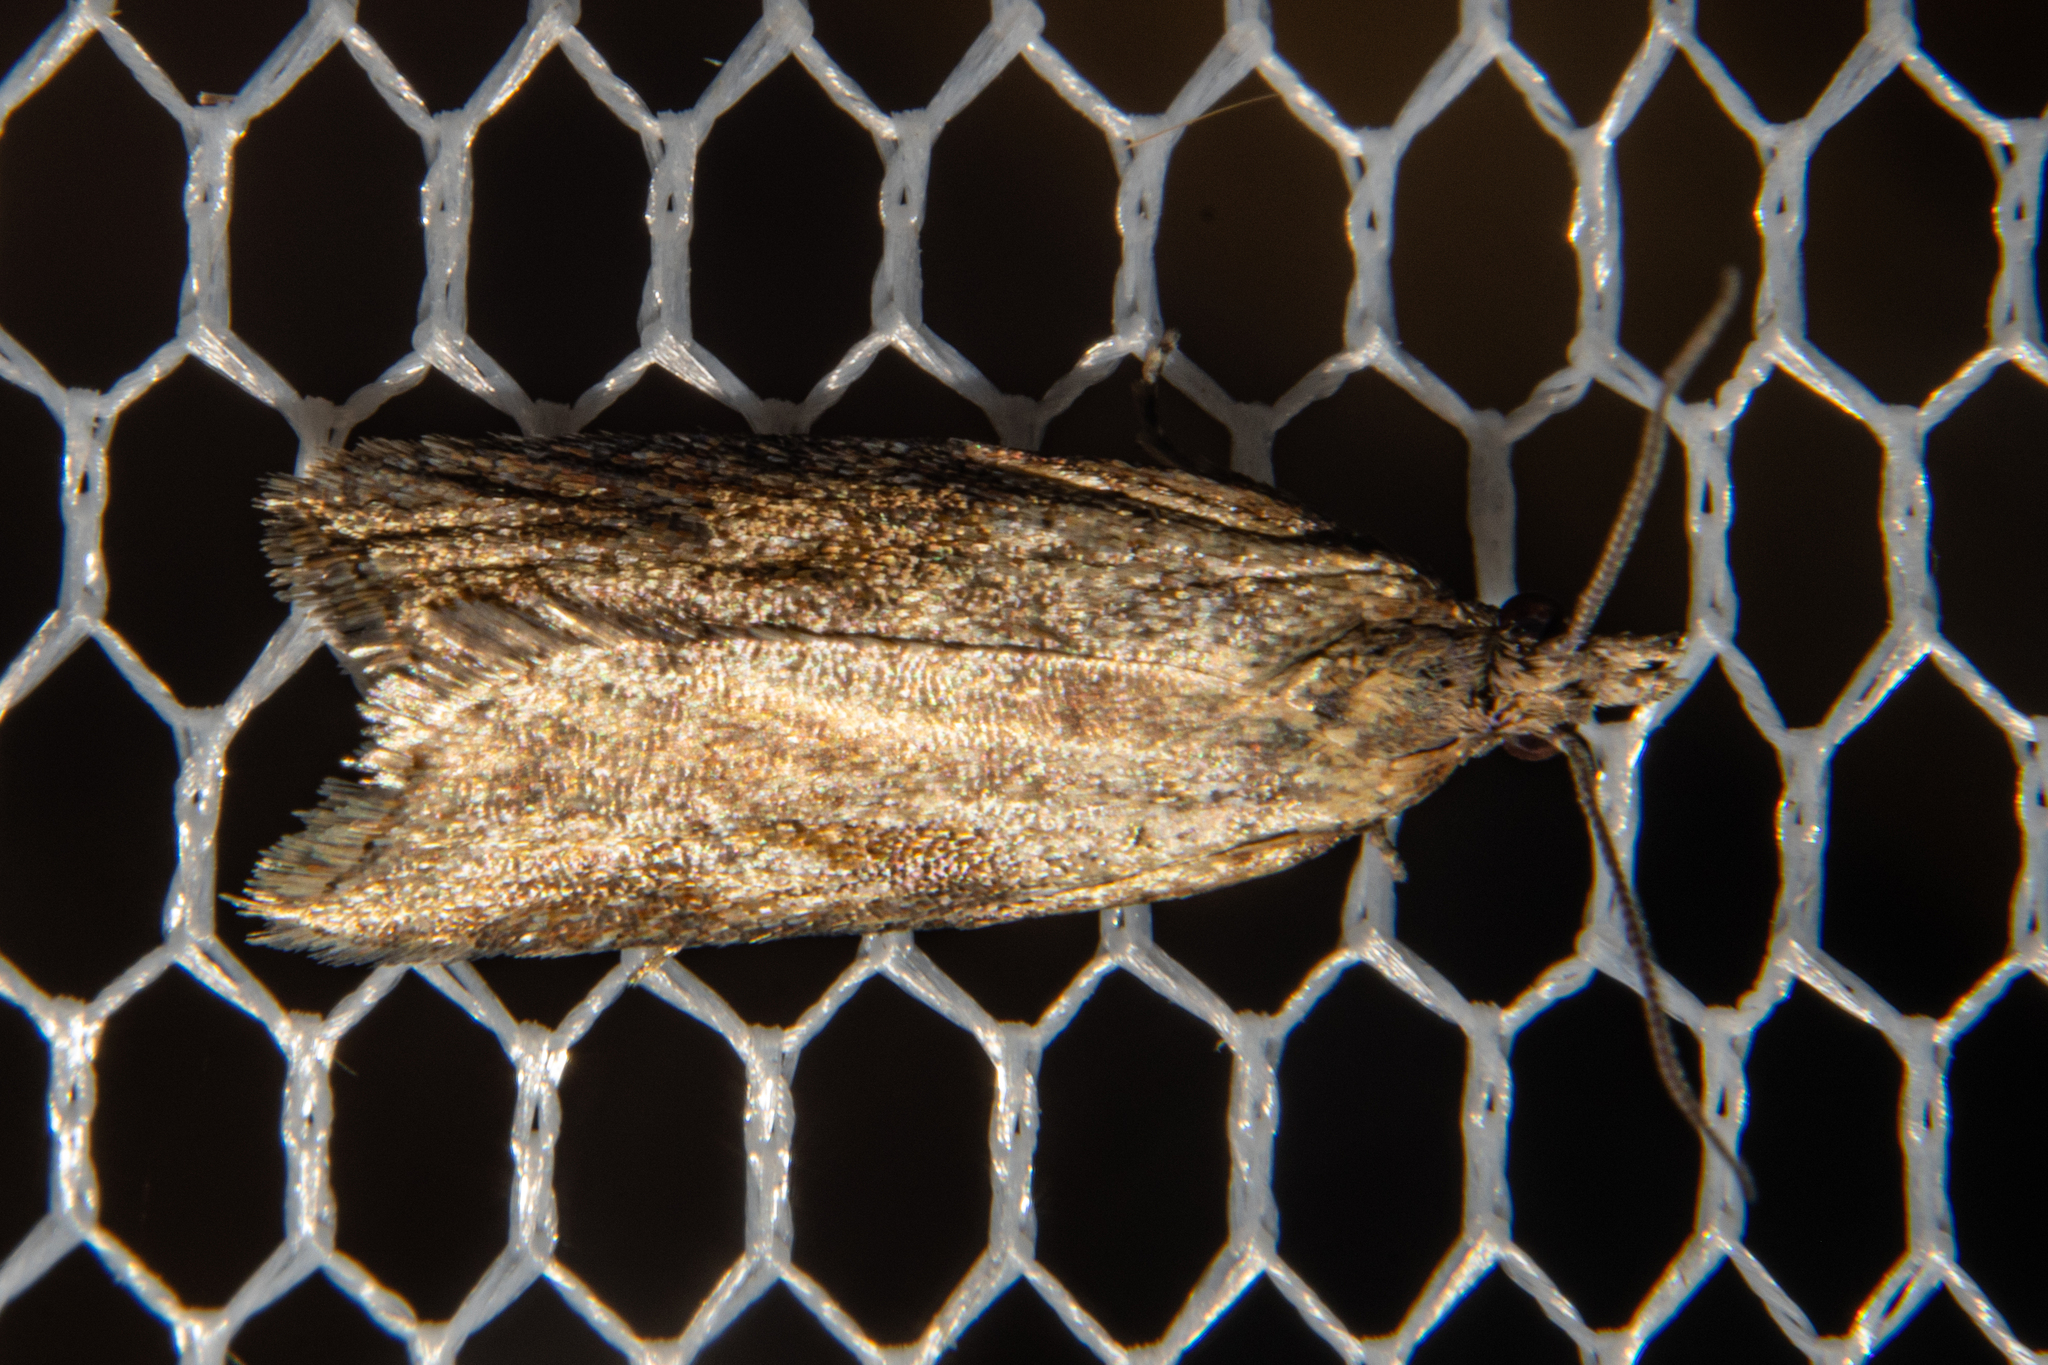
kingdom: Animalia
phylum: Arthropoda
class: Insecta
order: Lepidoptera
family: Tortricidae
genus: Capua
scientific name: Capua semiferana
